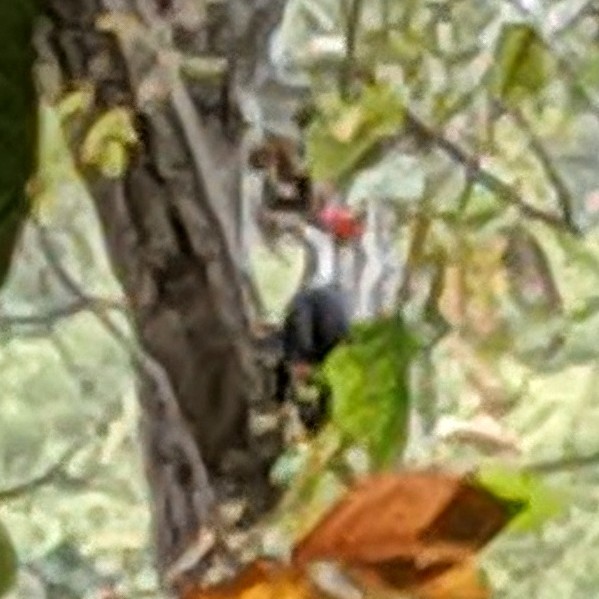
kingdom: Animalia
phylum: Chordata
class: Aves
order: Piciformes
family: Picidae
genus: Dryocopus
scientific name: Dryocopus pileatus
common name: Pileated woodpecker
